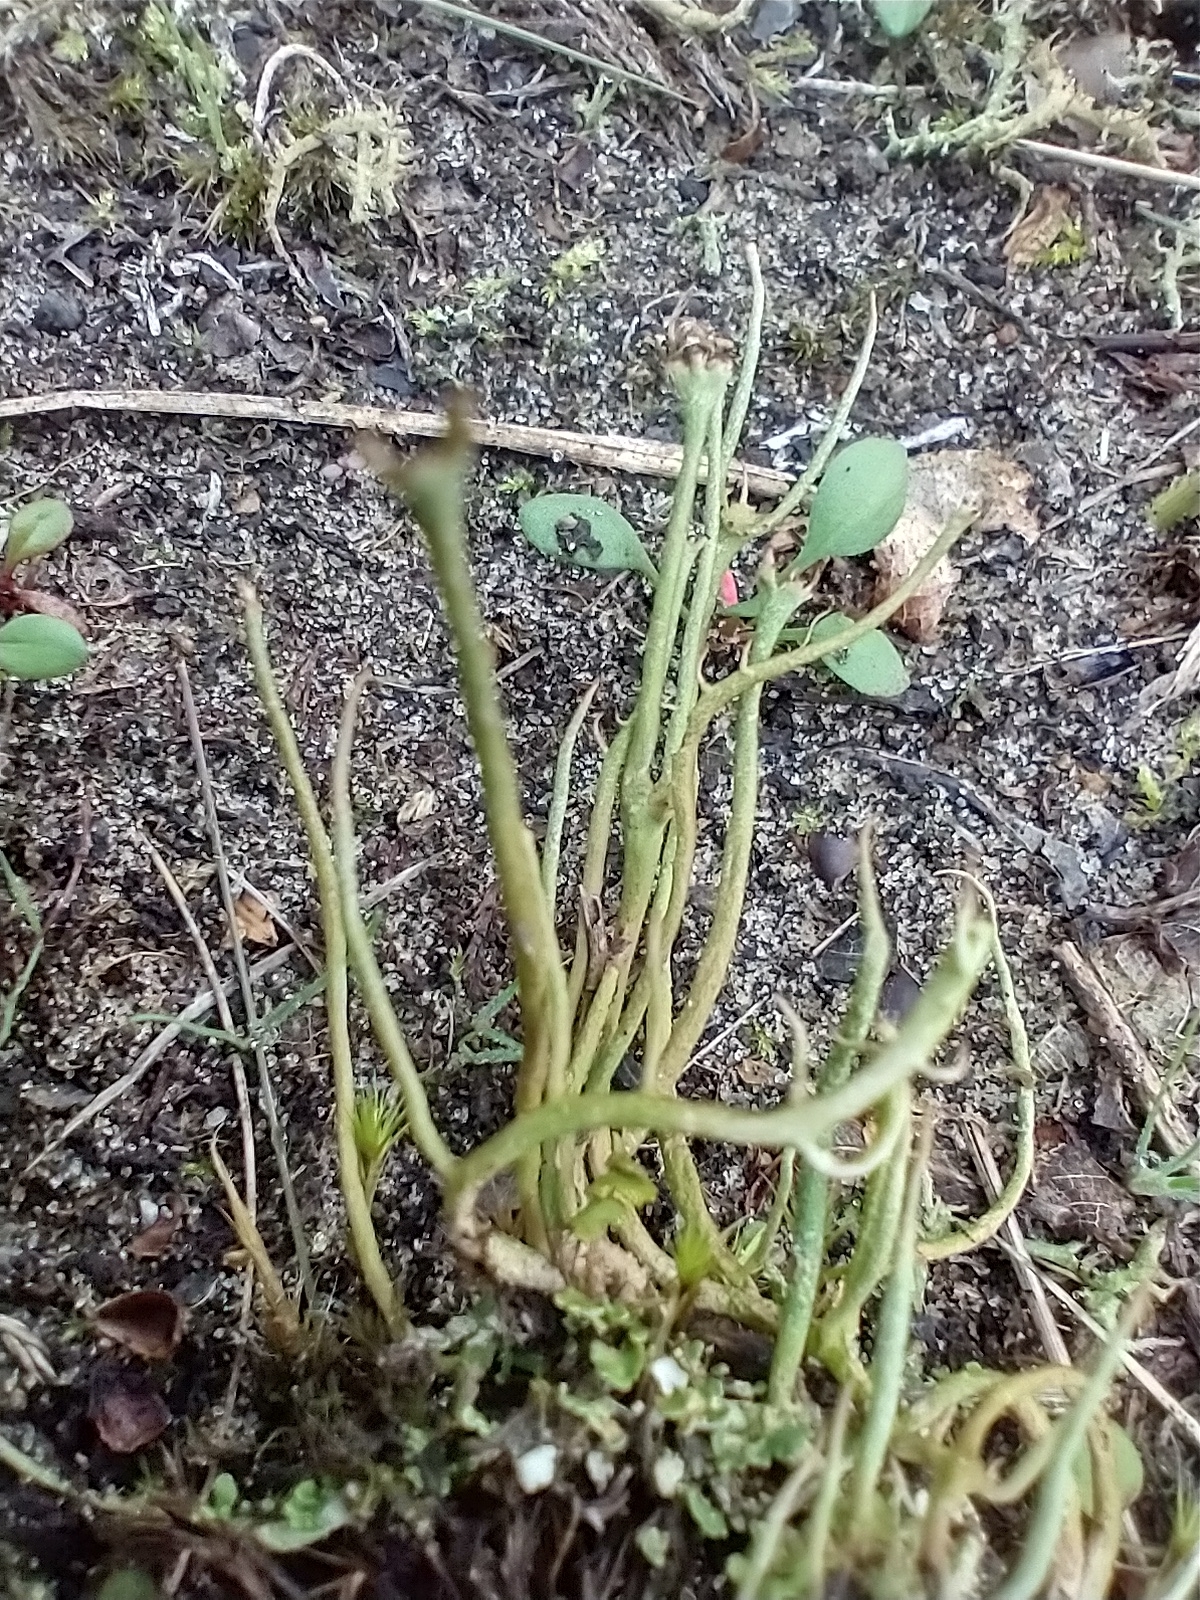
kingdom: Fungi
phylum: Ascomycota
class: Lecanoromycetes
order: Lecanorales
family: Cladoniaceae
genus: Cladonia
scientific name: Cladonia gracilis
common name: Smooth clad lichen
